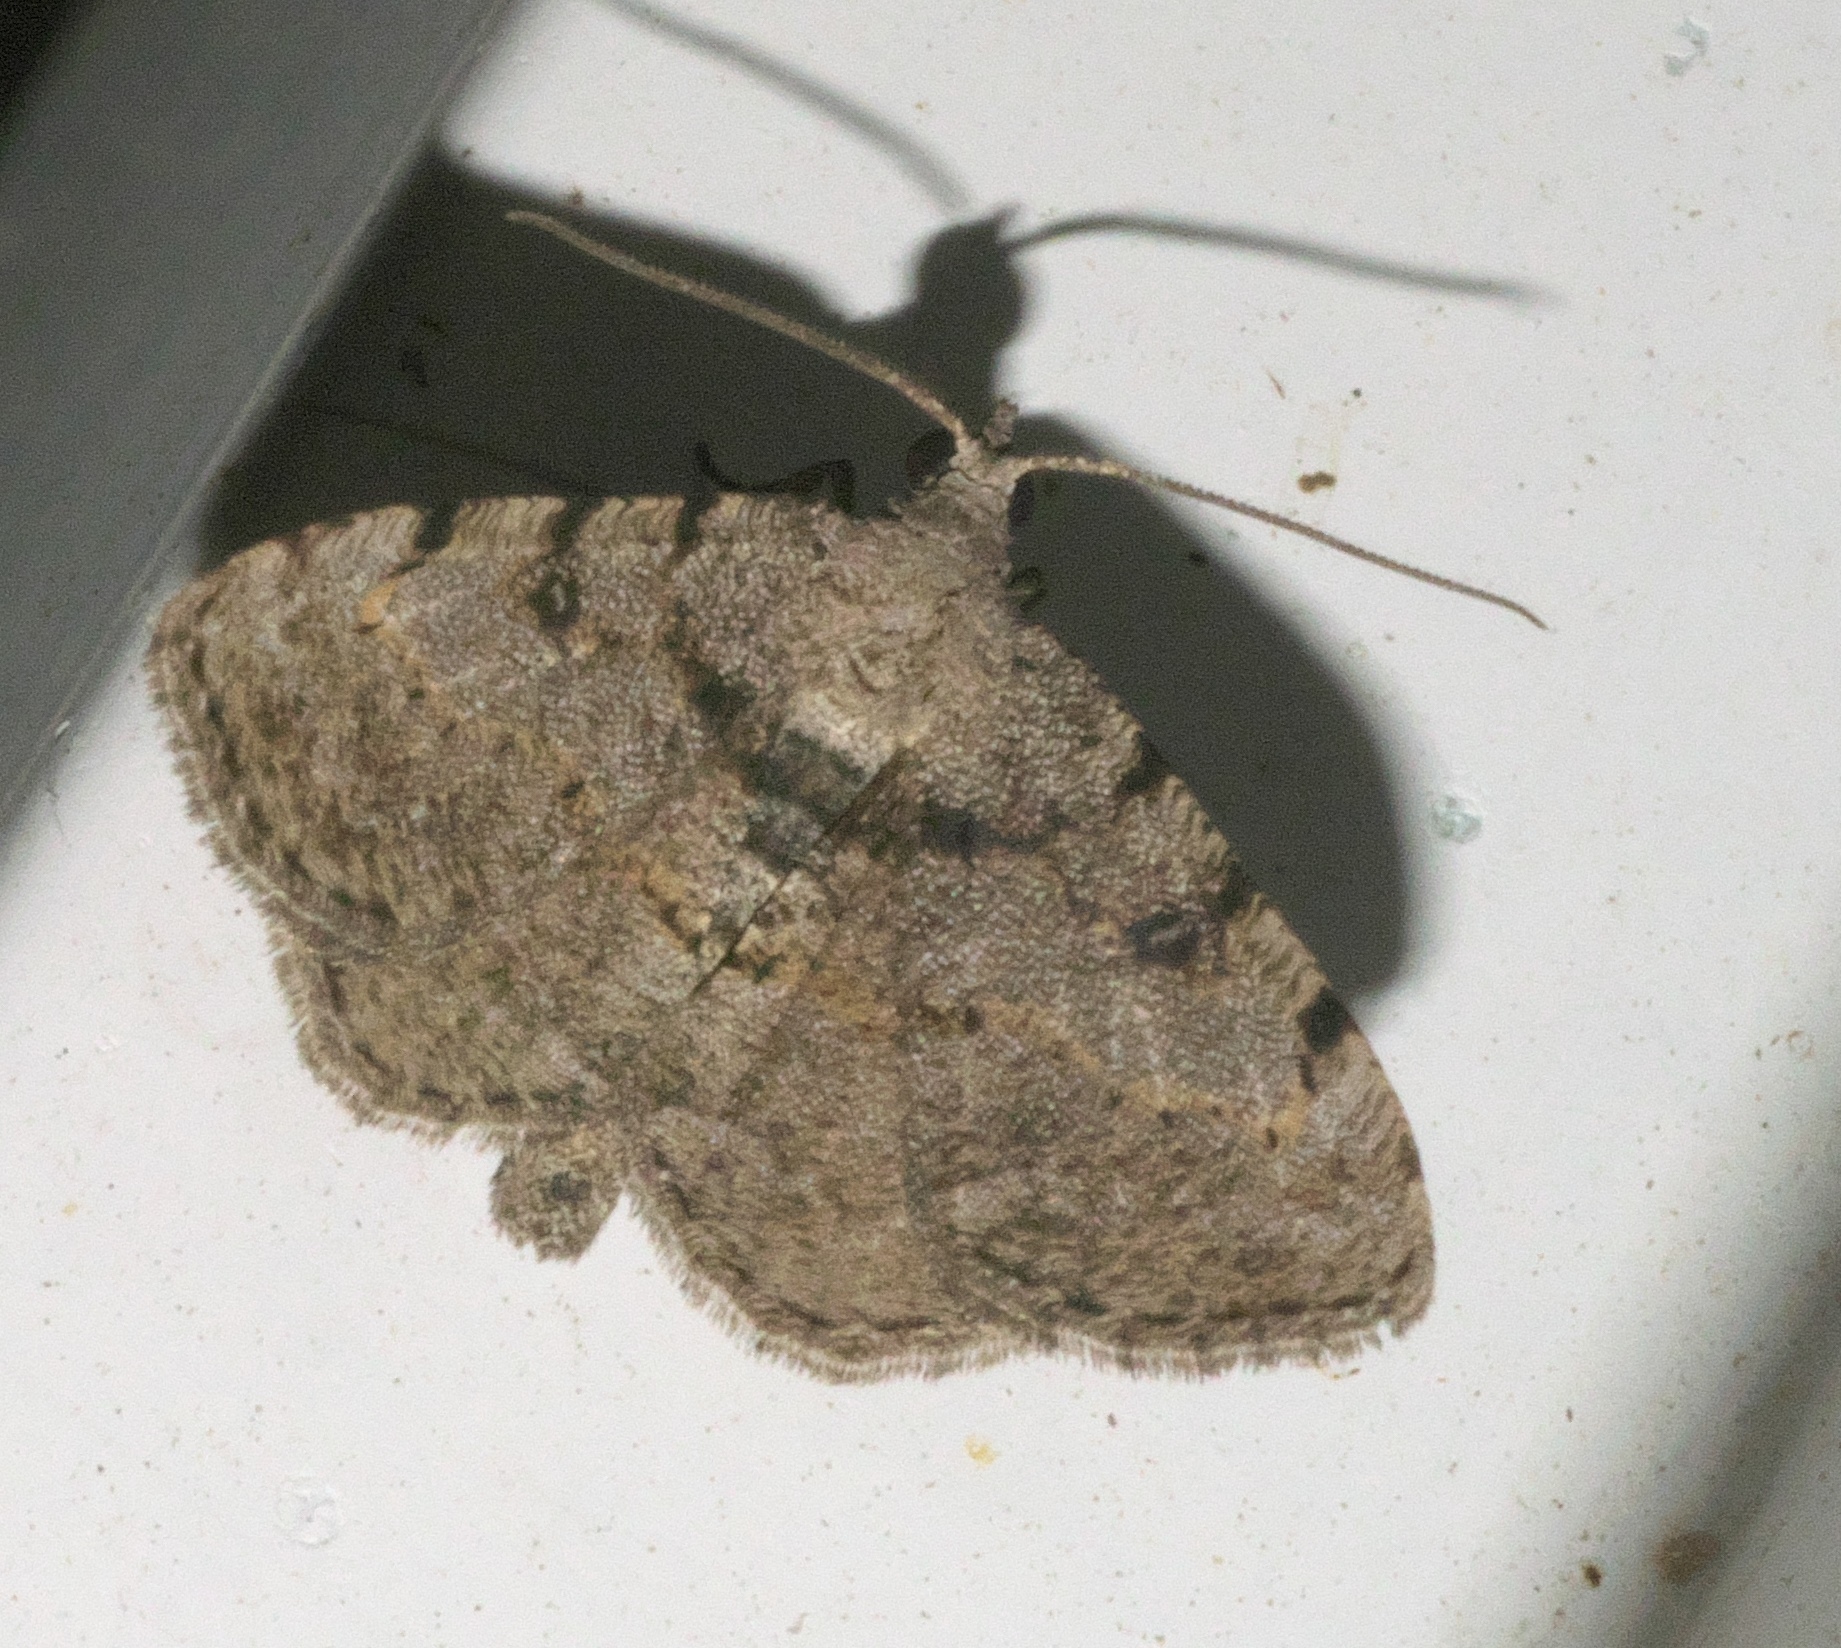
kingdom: Animalia
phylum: Arthropoda
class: Insecta
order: Lepidoptera
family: Geometridae
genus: Digrammia
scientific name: Digrammia gnophosaria
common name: Hollow-spotted angle
